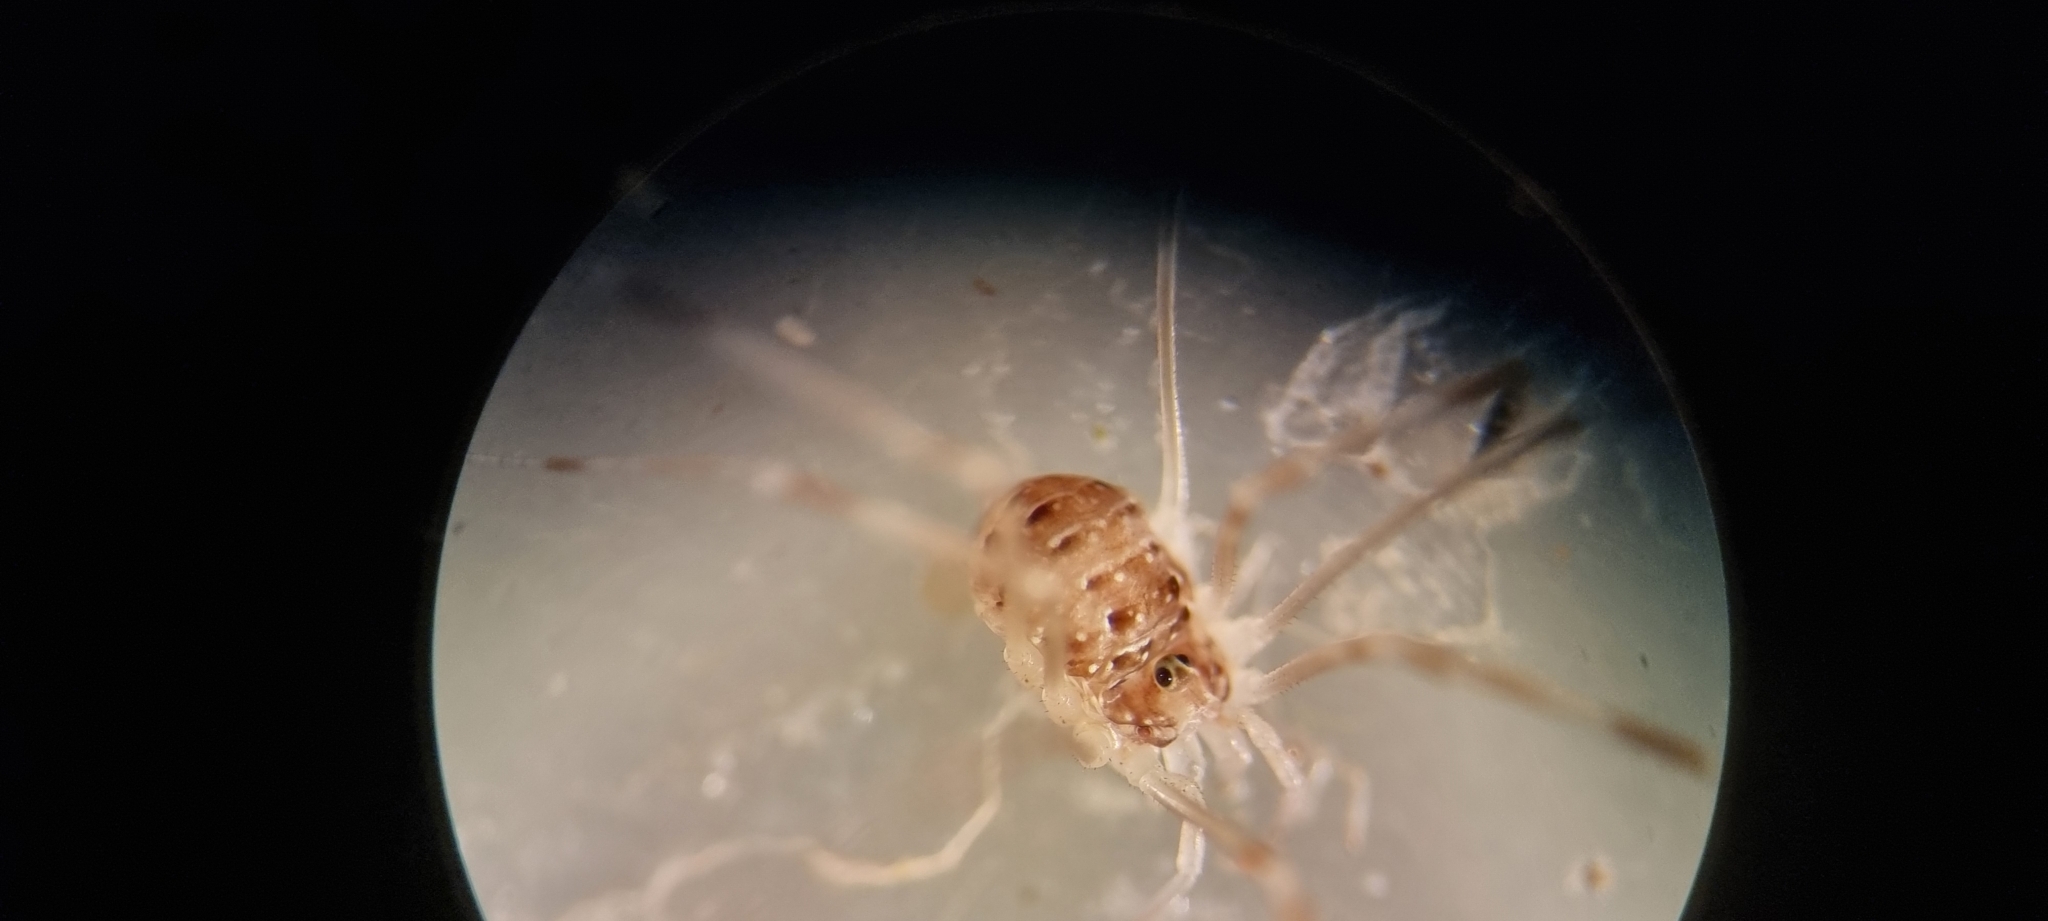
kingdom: Animalia
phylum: Arthropoda
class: Arachnida
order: Opiliones
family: Phalangiidae
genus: Opilio
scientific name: Opilio canestrinii
